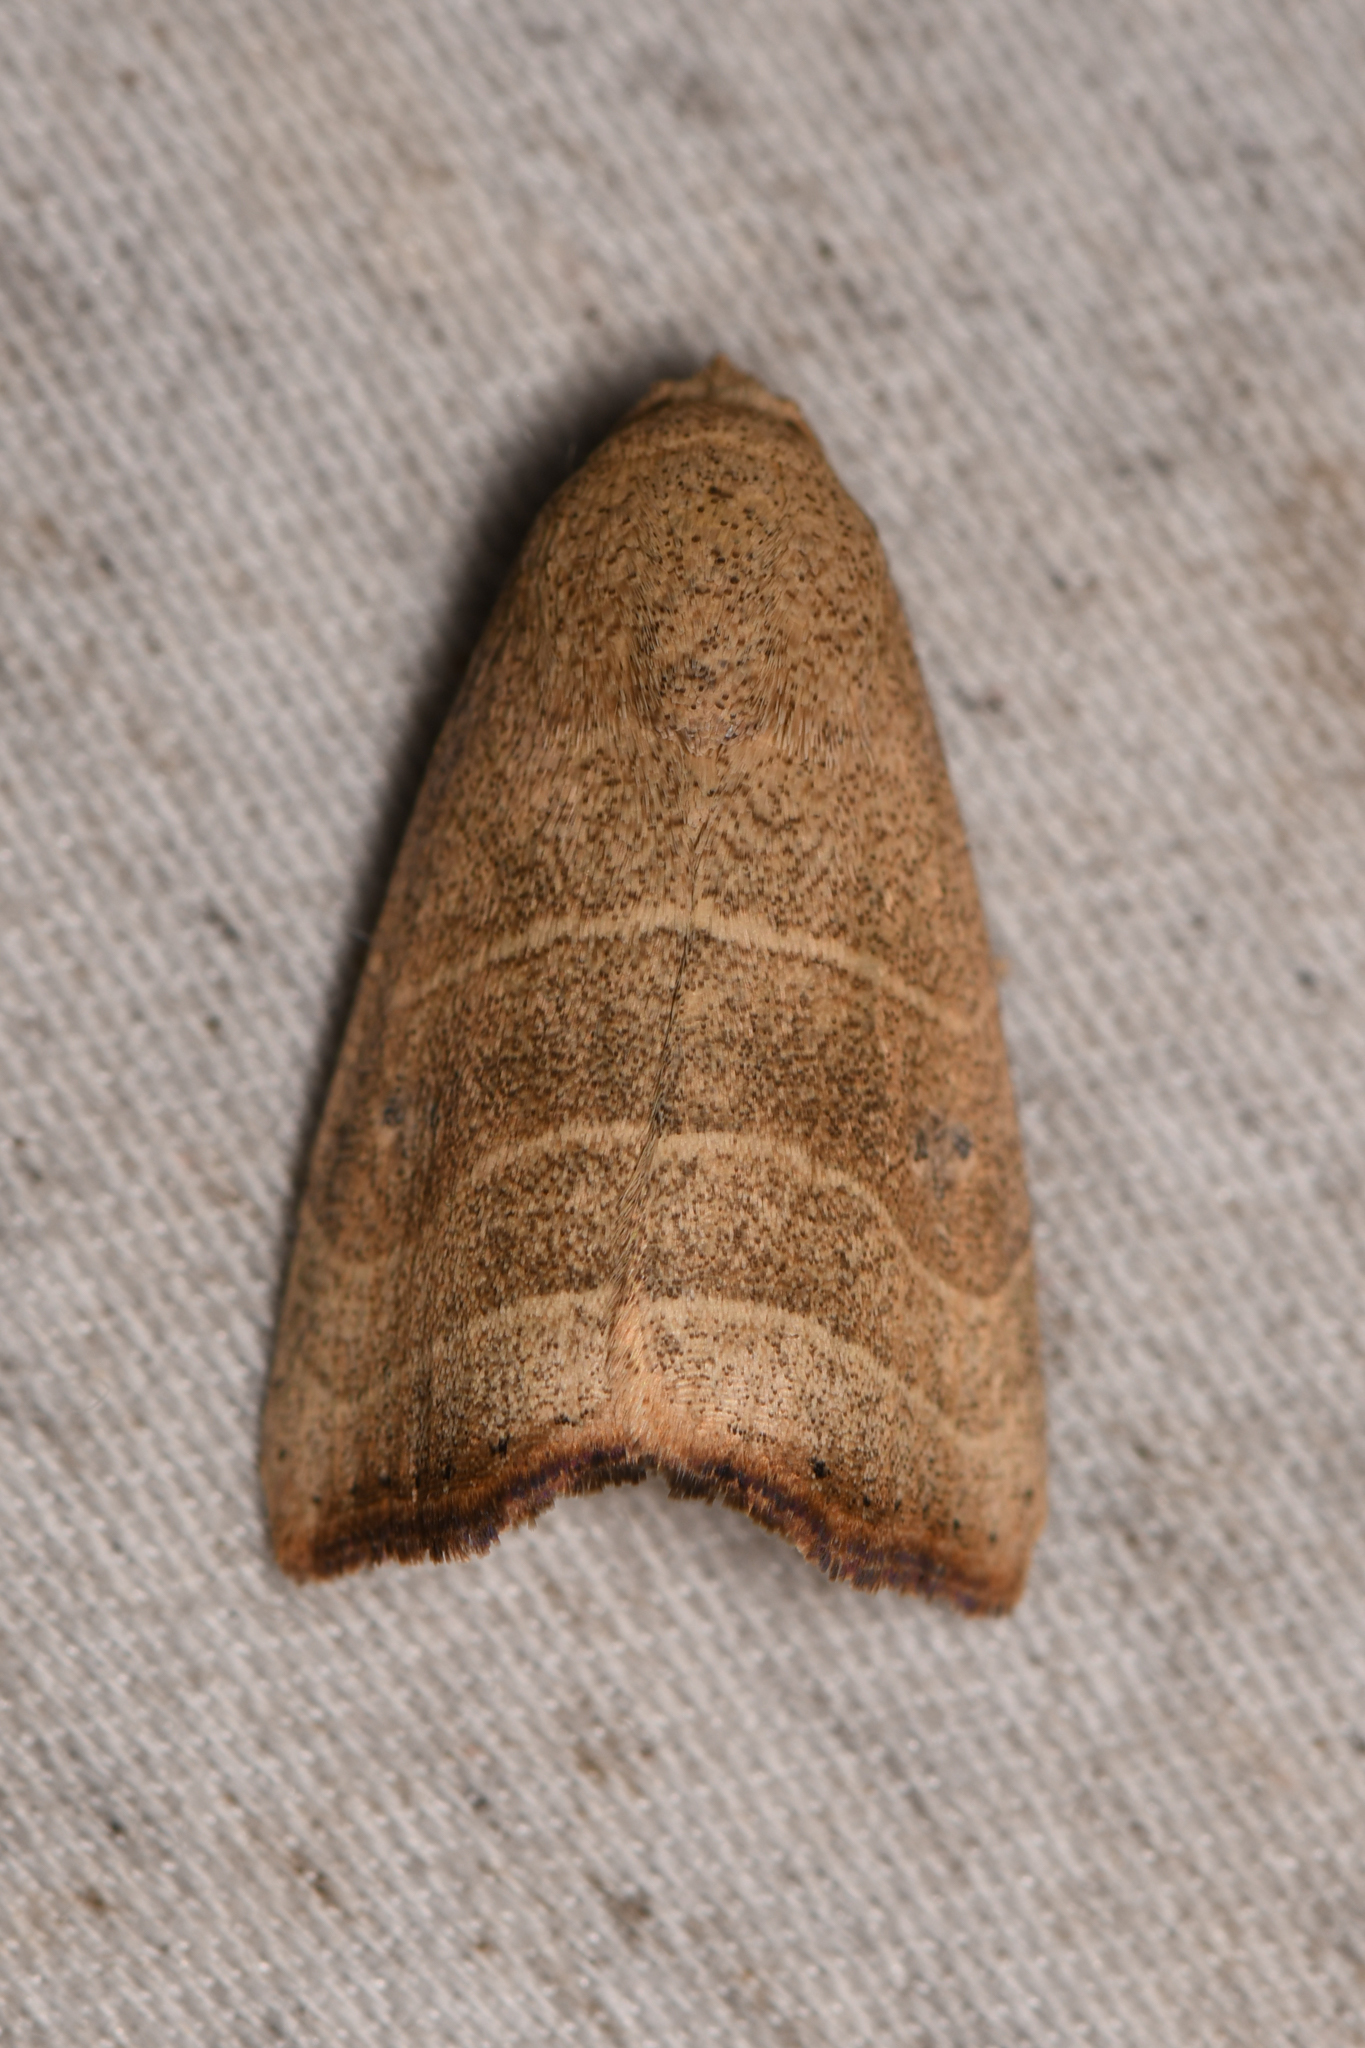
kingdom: Animalia
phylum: Arthropoda
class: Insecta
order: Lepidoptera
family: Noctuidae
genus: Bagisara
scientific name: Bagisara repanda
